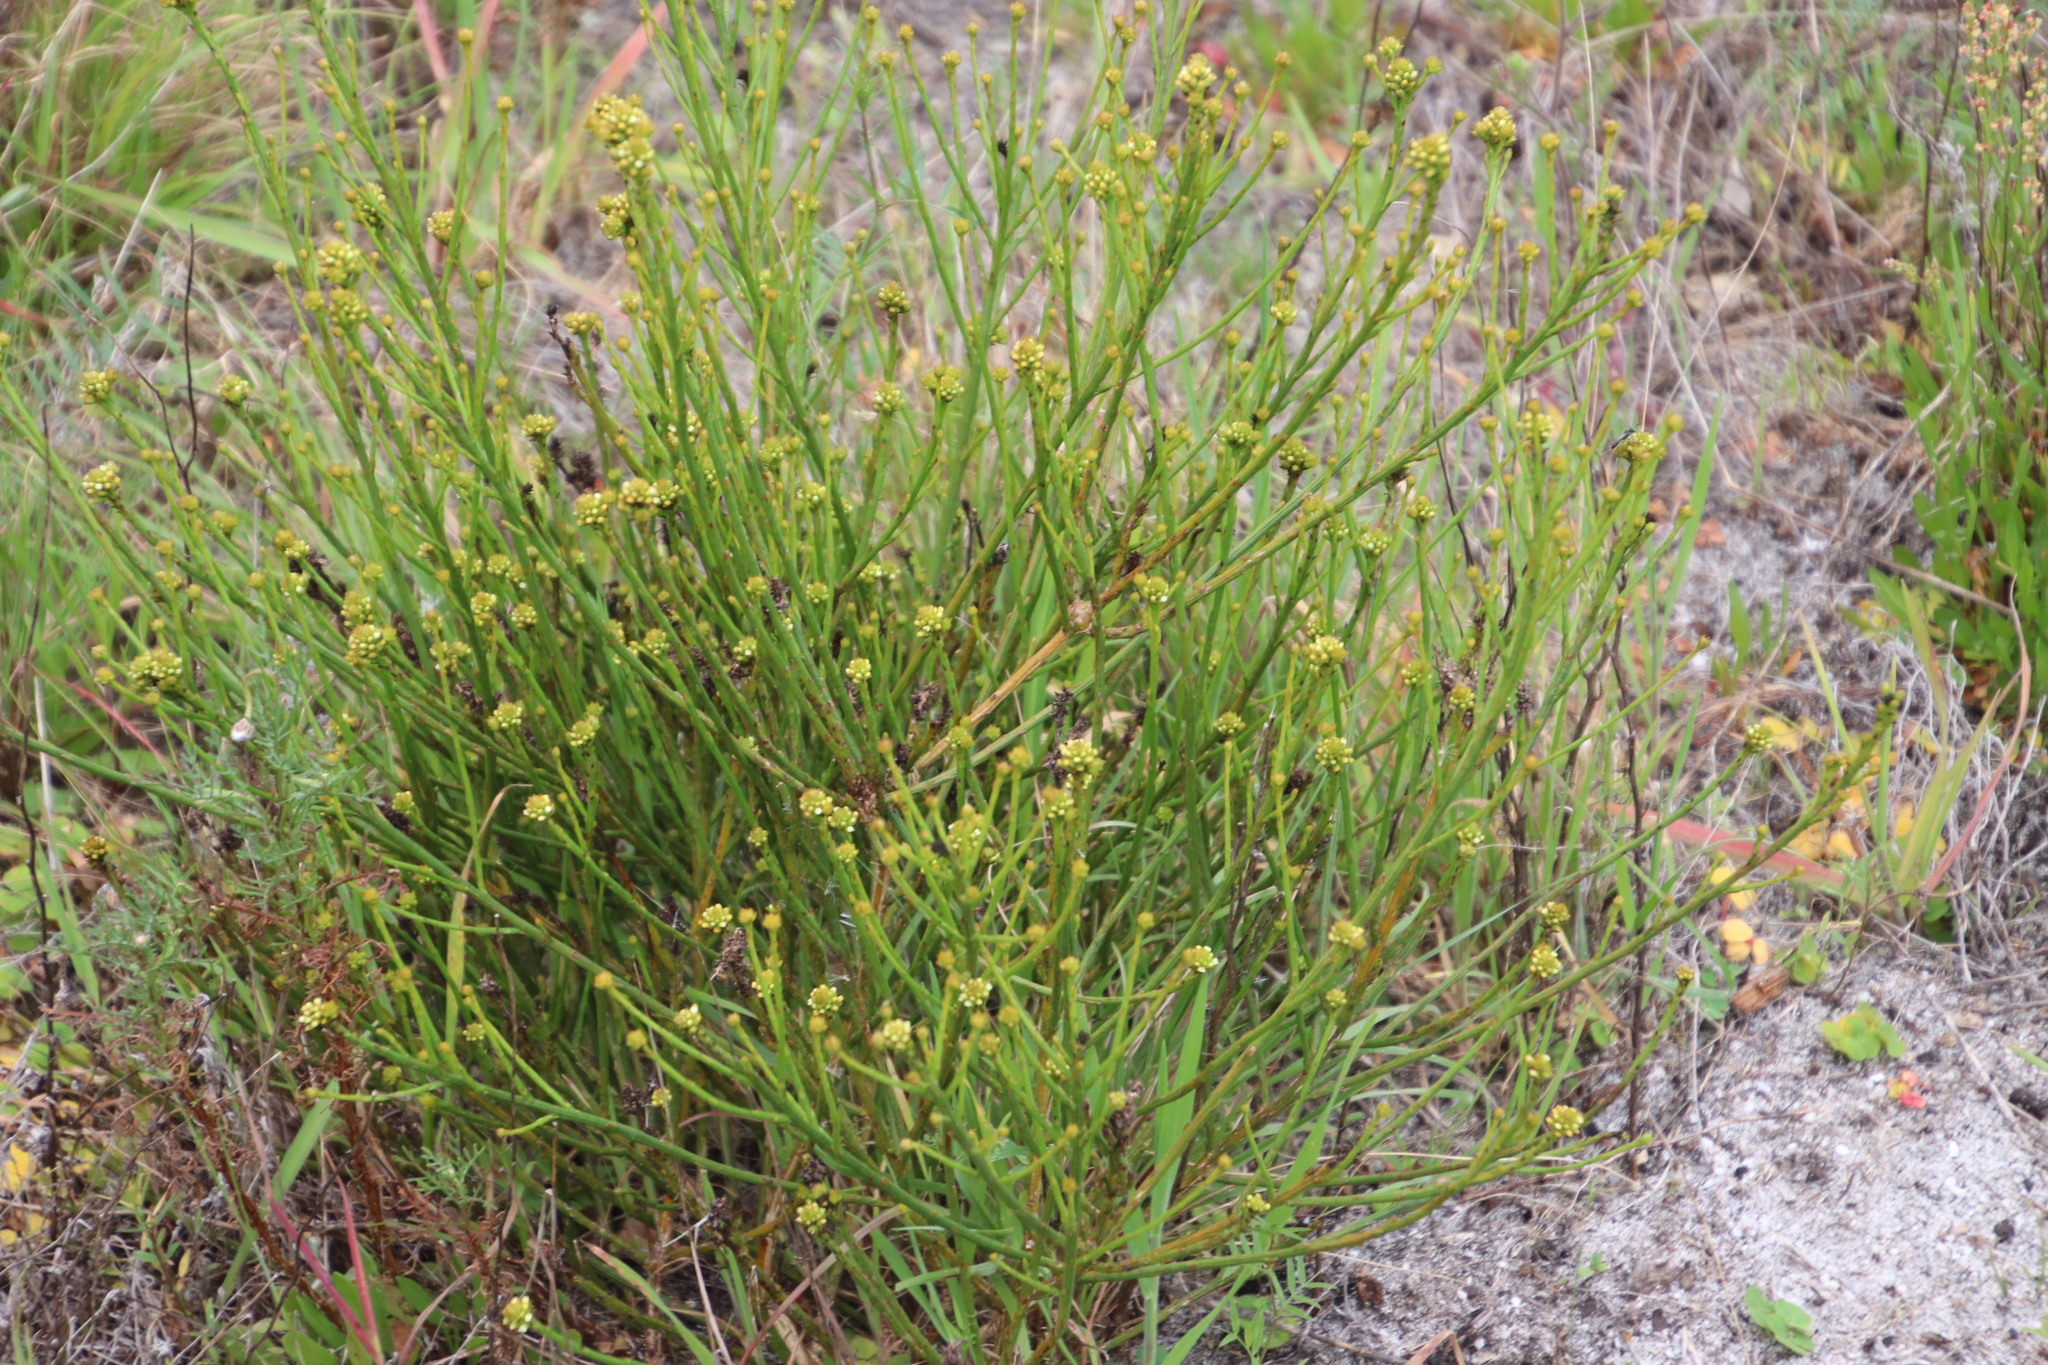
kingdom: Plantae
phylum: Tracheophyta
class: Magnoliopsida
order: Santalales
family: Thesiaceae
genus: Thesium
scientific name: Thesium aggregatum
